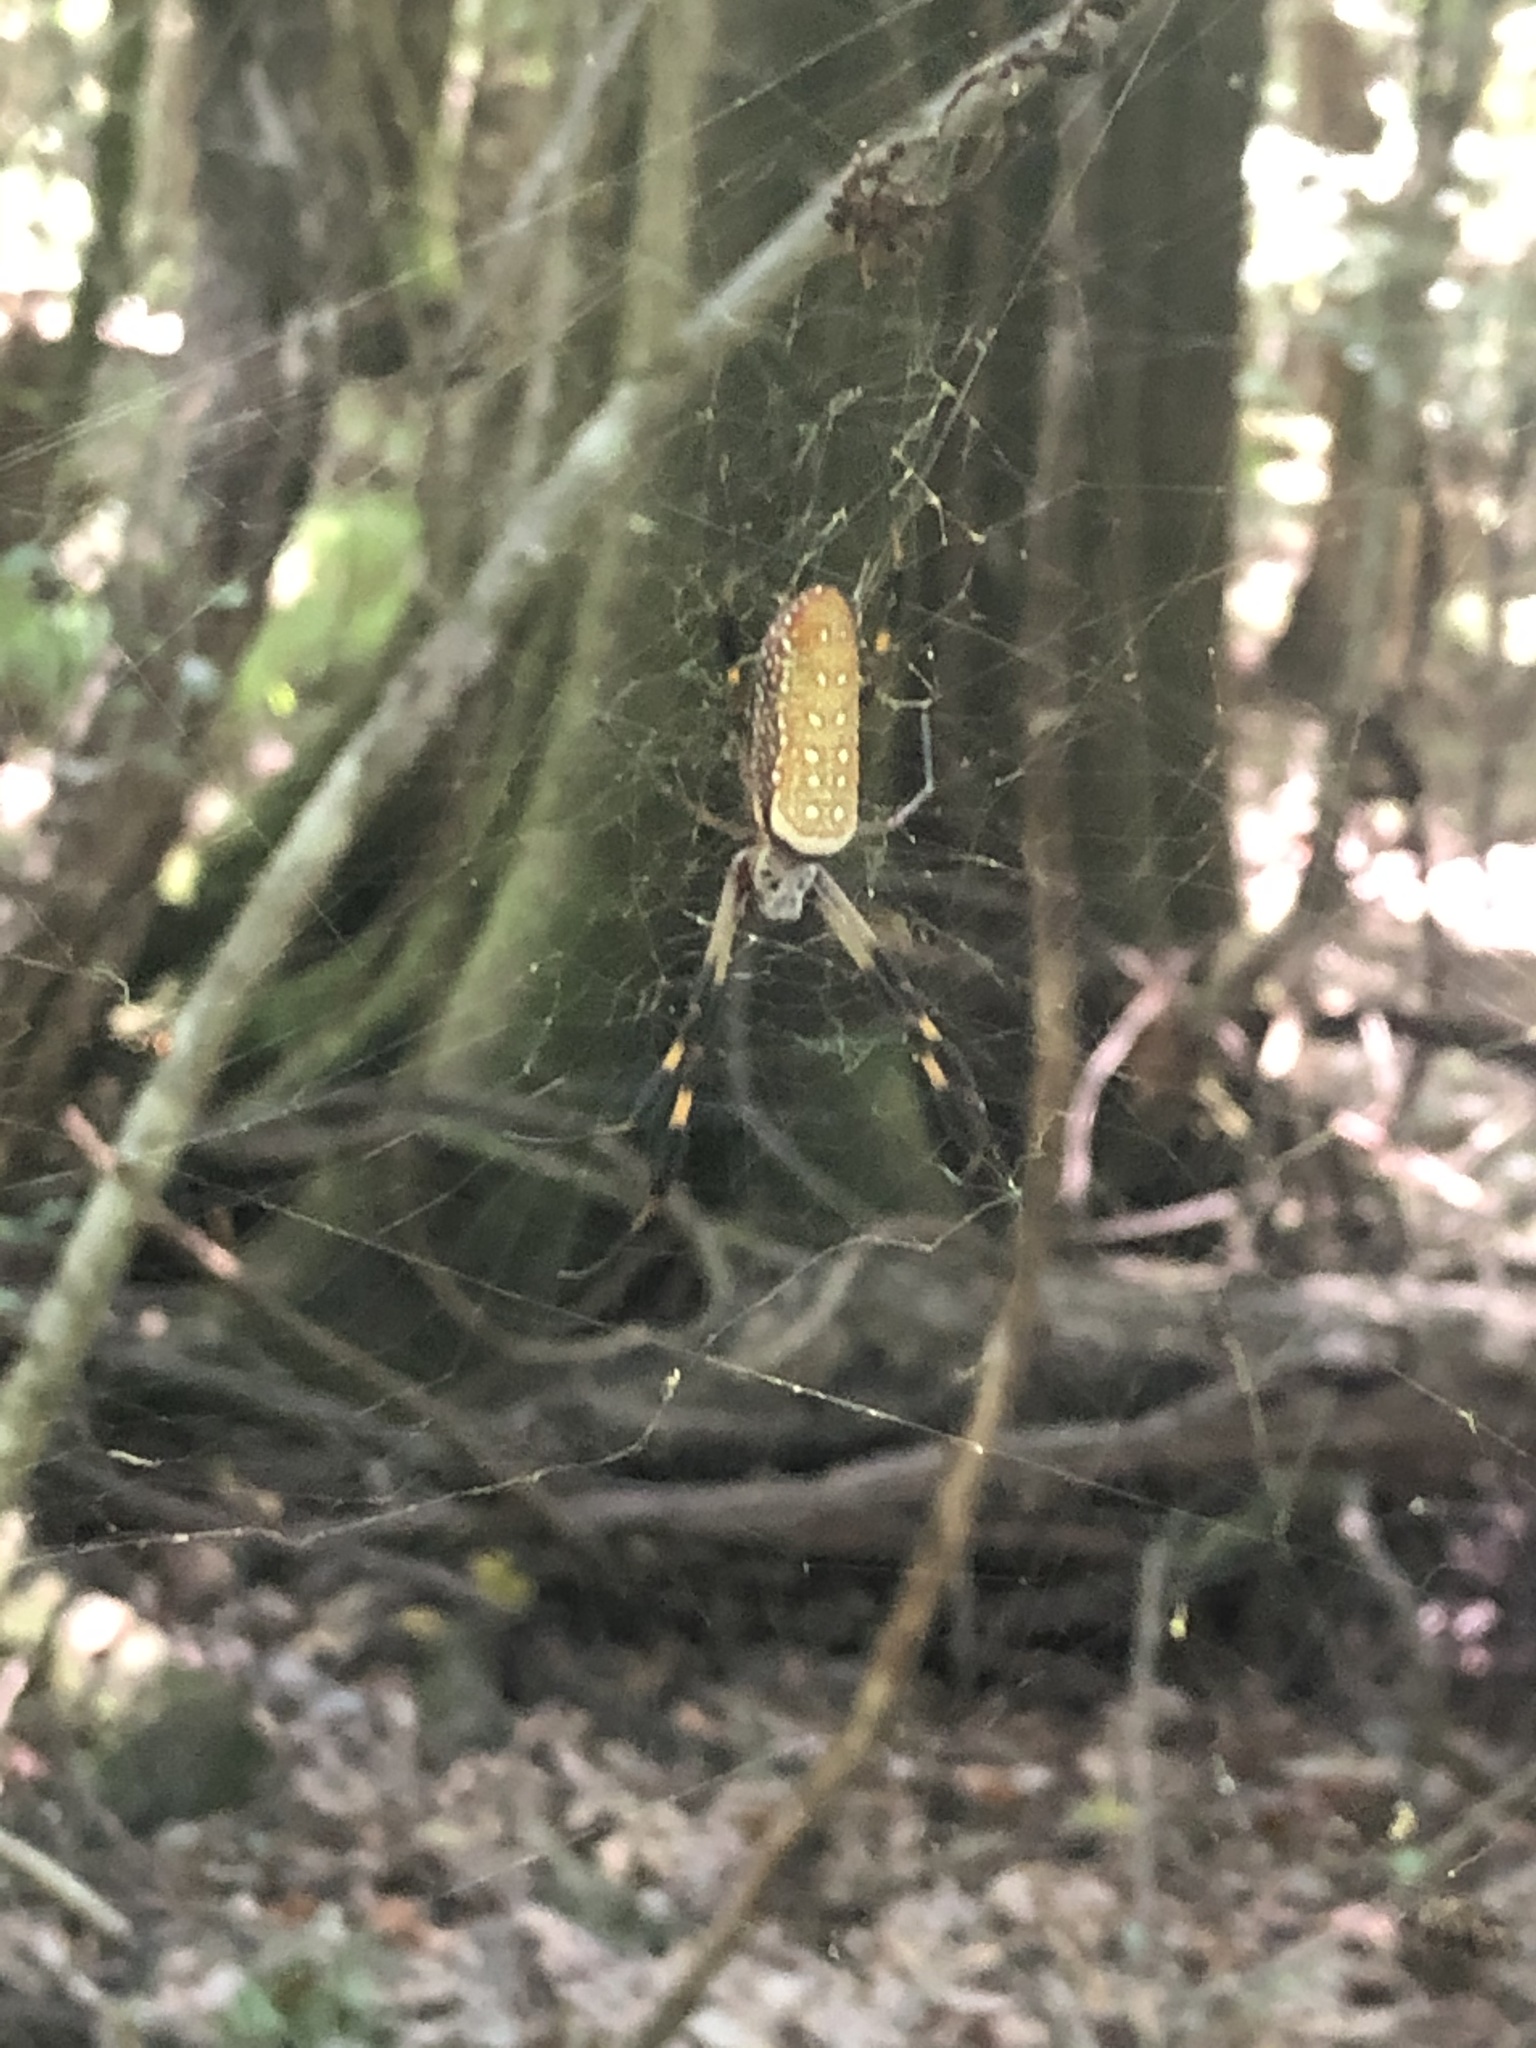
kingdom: Animalia
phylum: Arthropoda
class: Arachnida
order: Araneae
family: Araneidae
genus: Trichonephila
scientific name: Trichonephila clavipes
